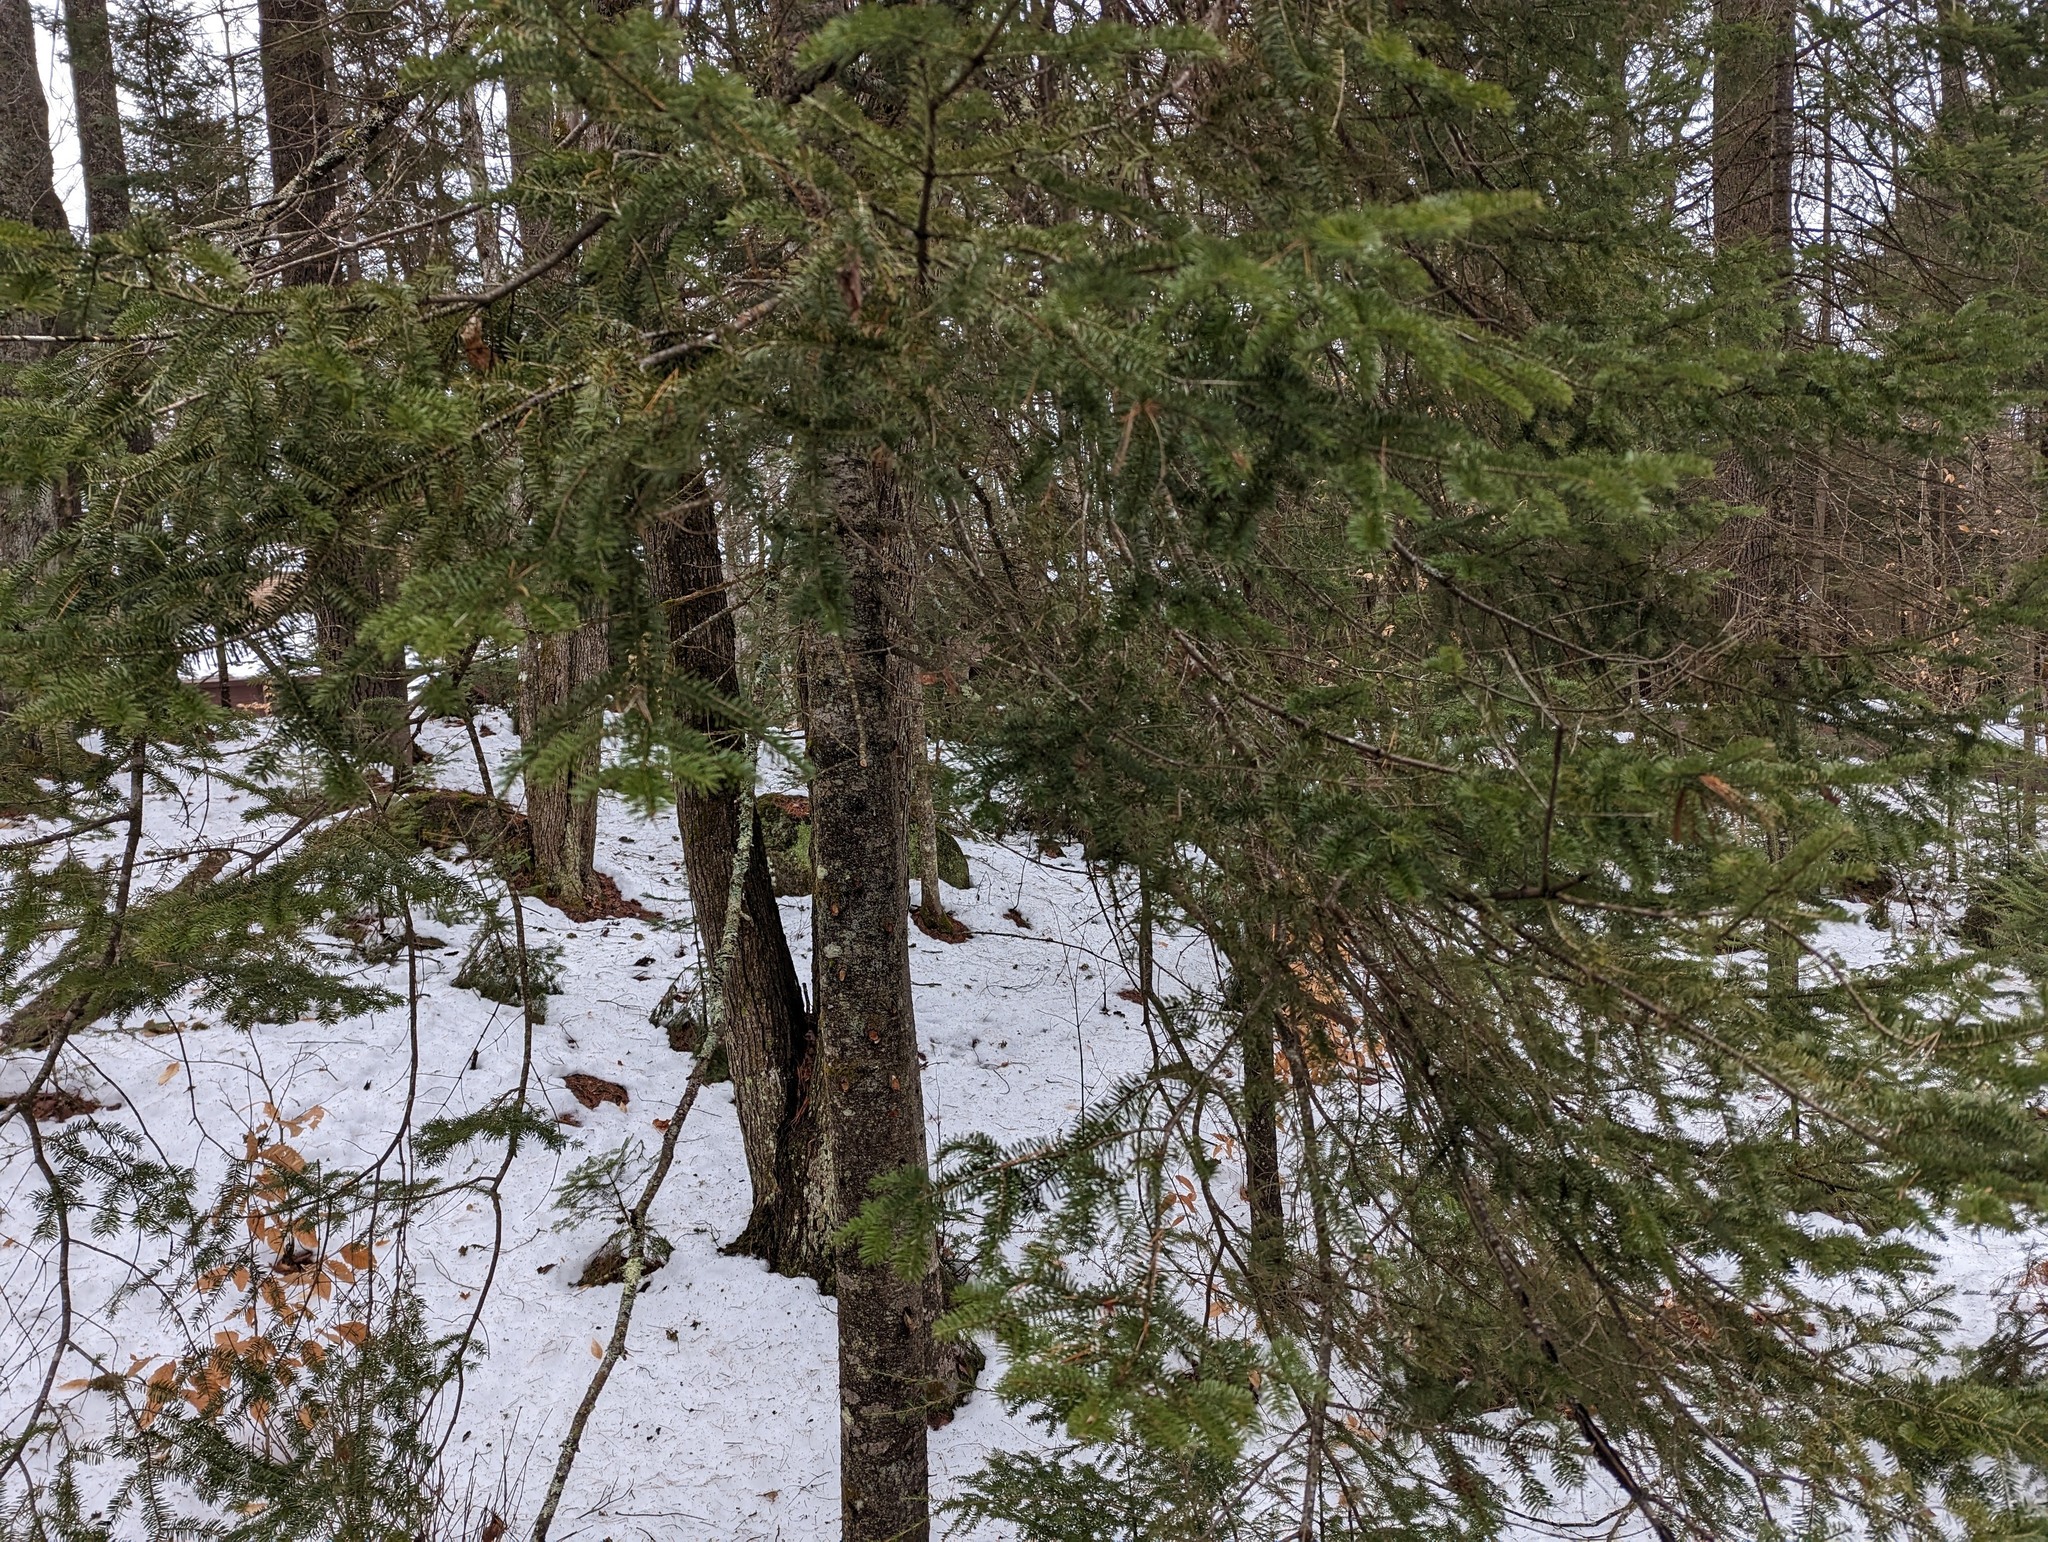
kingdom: Plantae
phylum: Tracheophyta
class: Pinopsida
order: Pinales
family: Pinaceae
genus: Abies
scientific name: Abies balsamea
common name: Balsam fir
